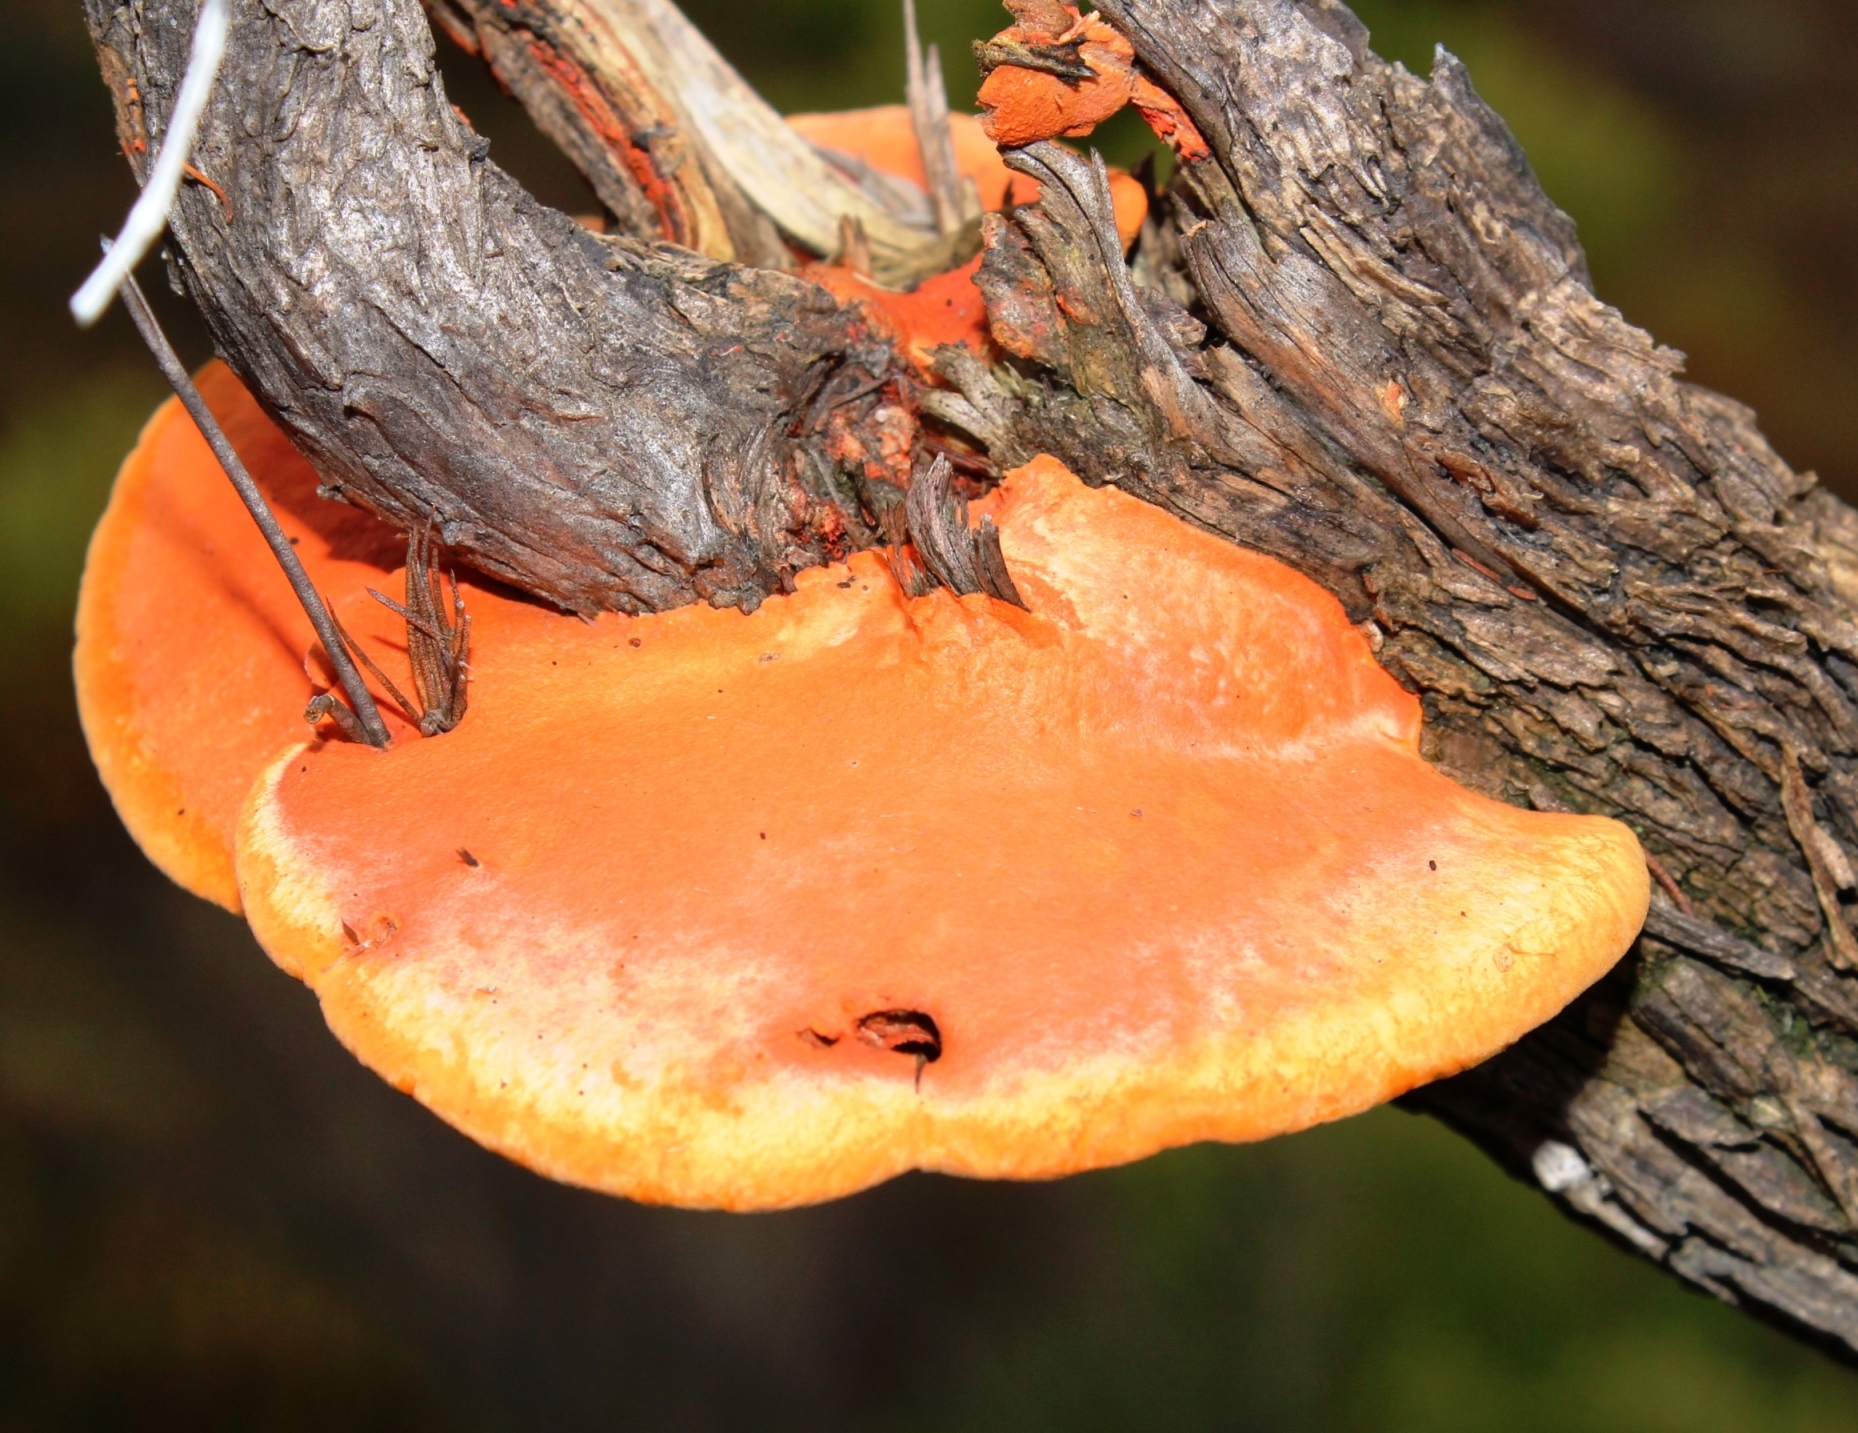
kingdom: Fungi
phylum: Basidiomycota
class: Agaricomycetes
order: Polyporales
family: Polyporaceae
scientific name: Polyporaceae
